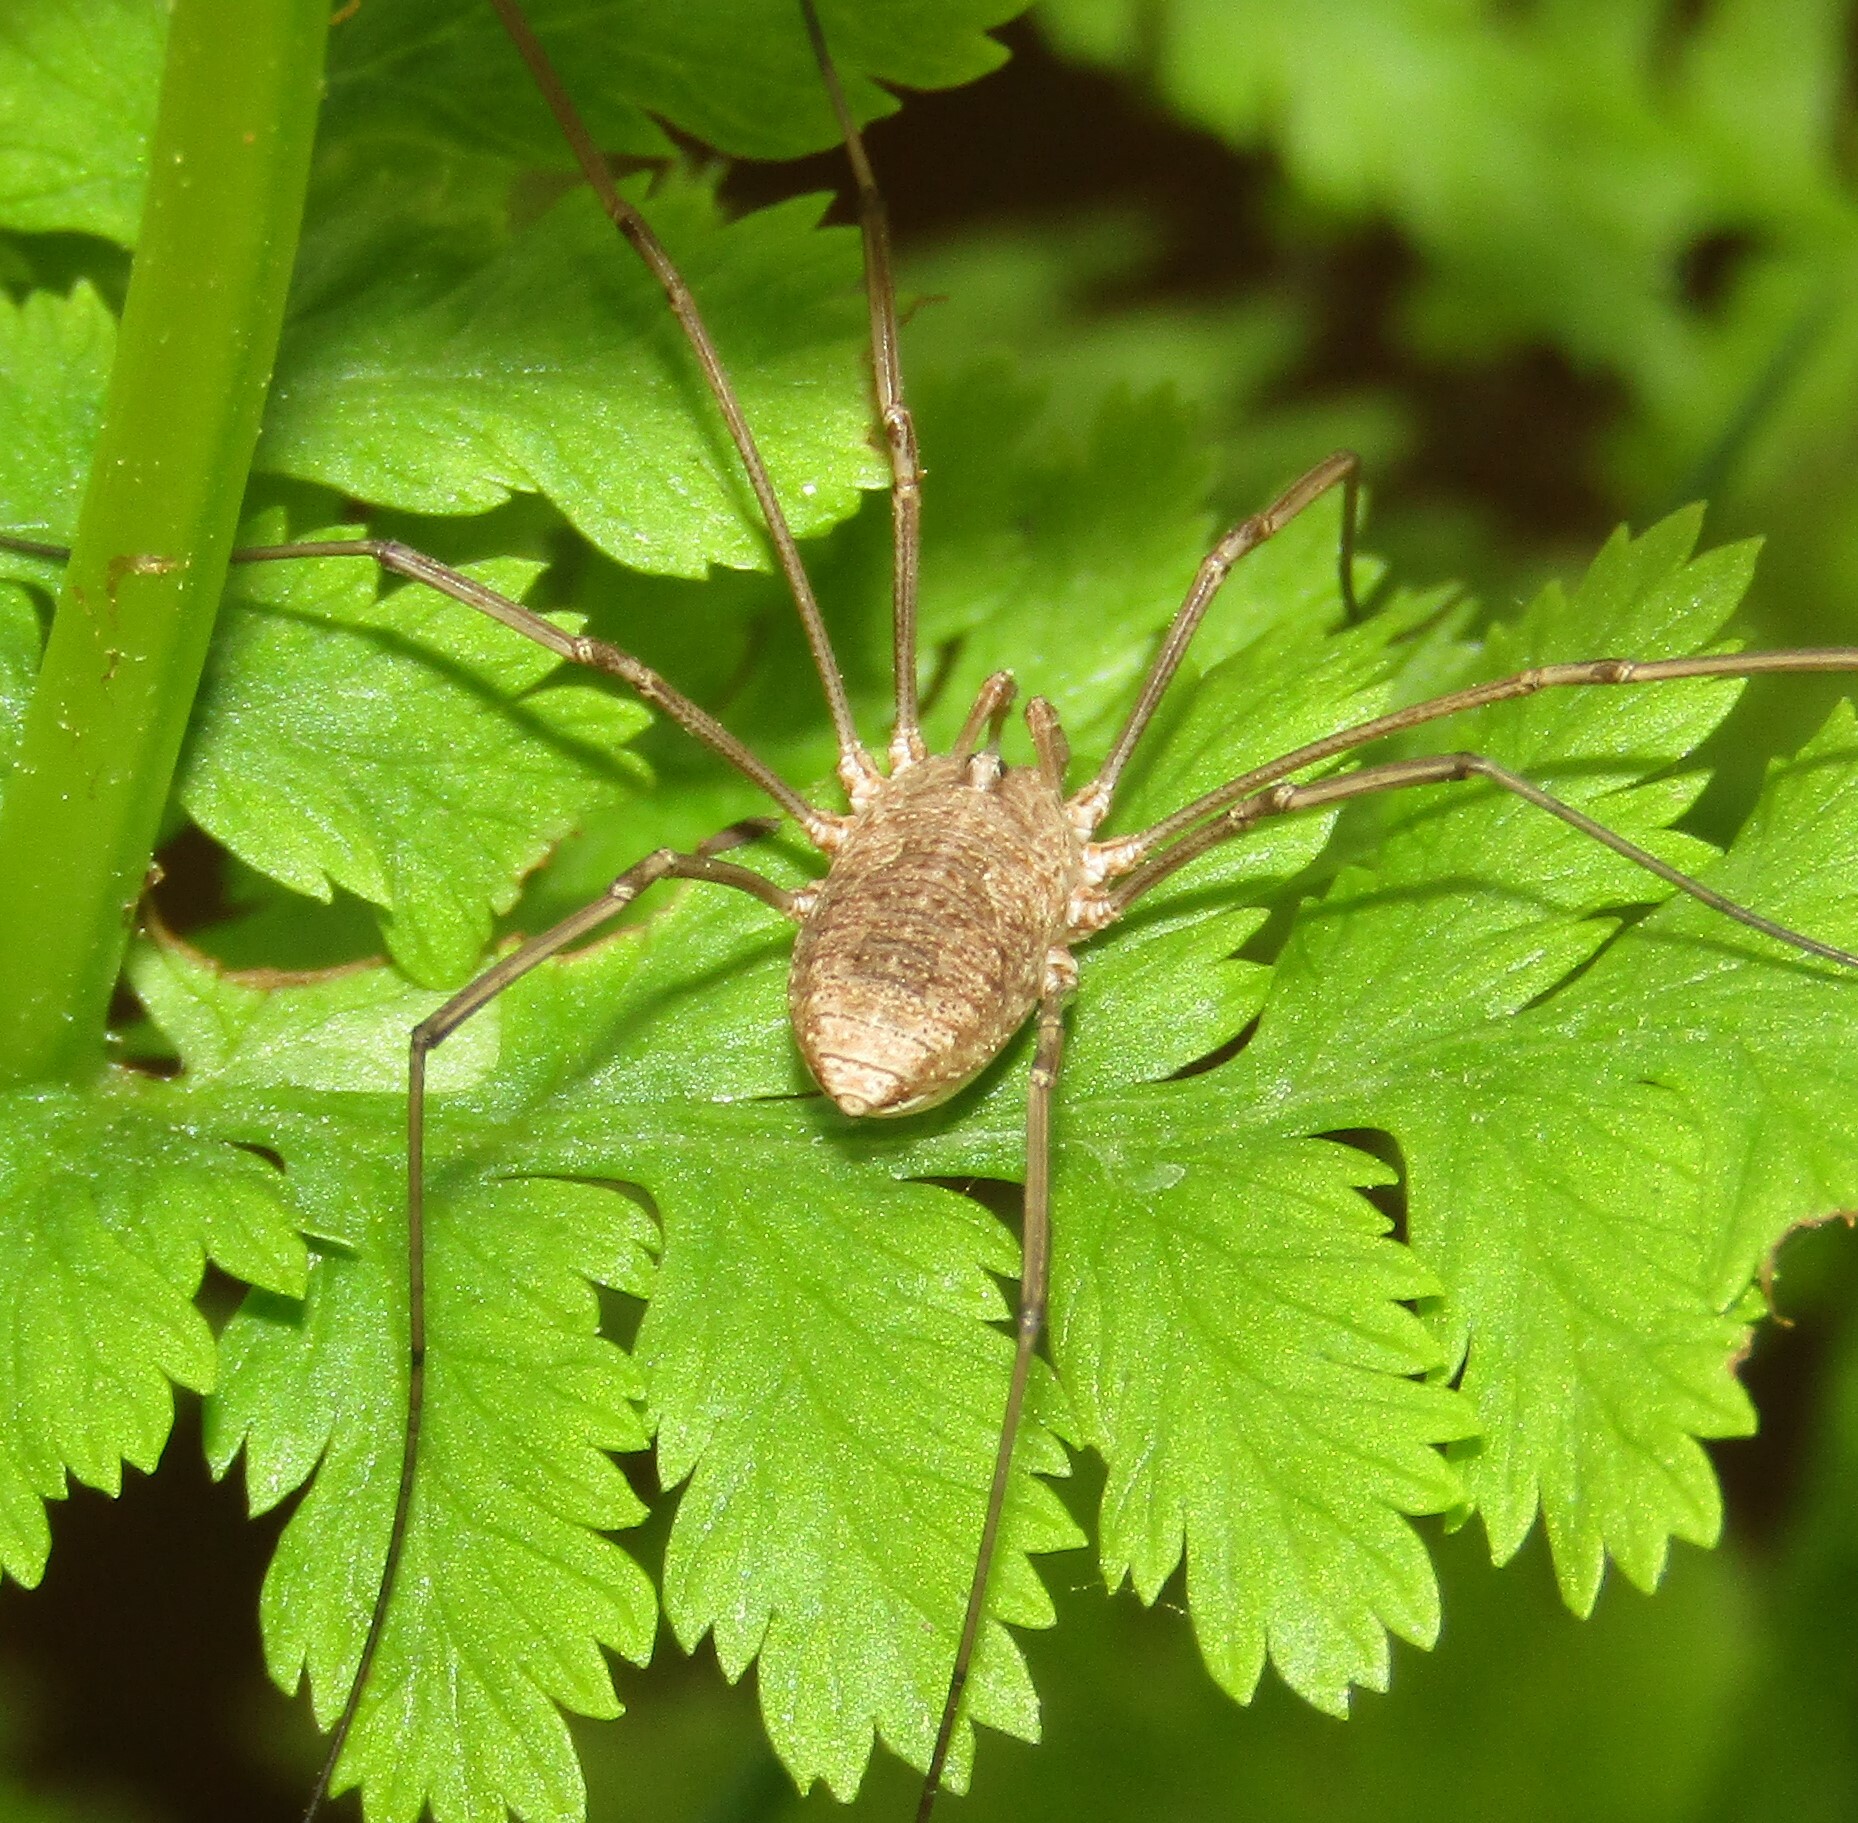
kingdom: Animalia
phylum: Arthropoda
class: Arachnida
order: Opiliones
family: Phalangiidae
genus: Phalangium
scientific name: Phalangium opilio
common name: Daddy longleg
